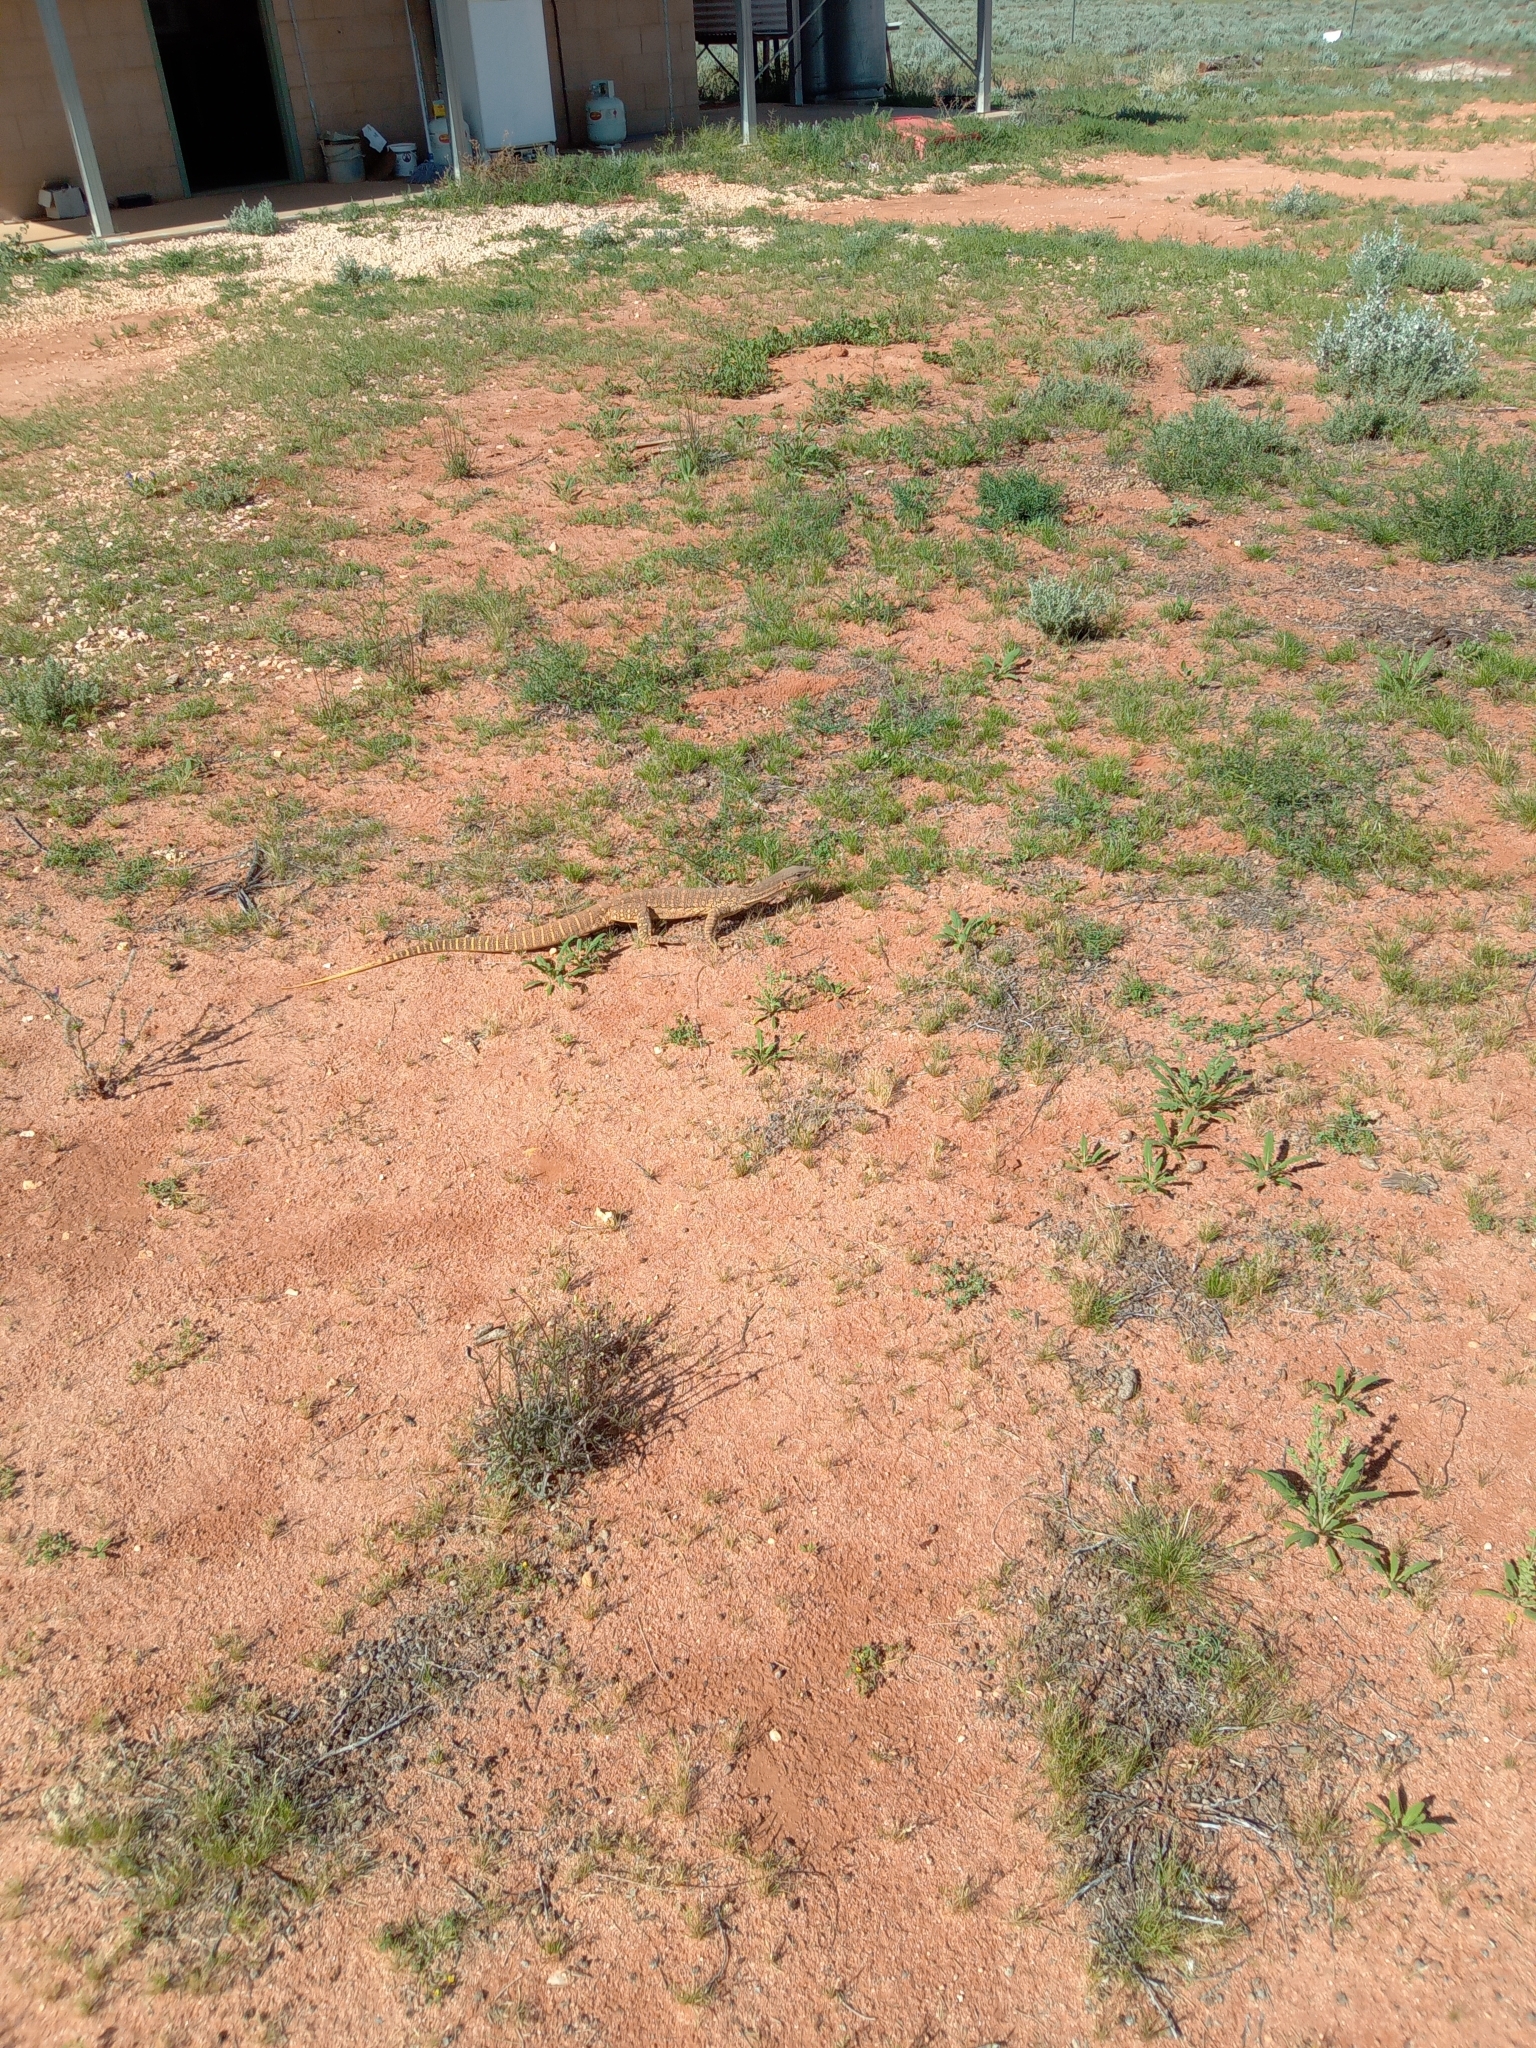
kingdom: Animalia
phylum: Chordata
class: Squamata
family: Varanidae
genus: Varanus
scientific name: Varanus gouldii
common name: Gould's goanna
